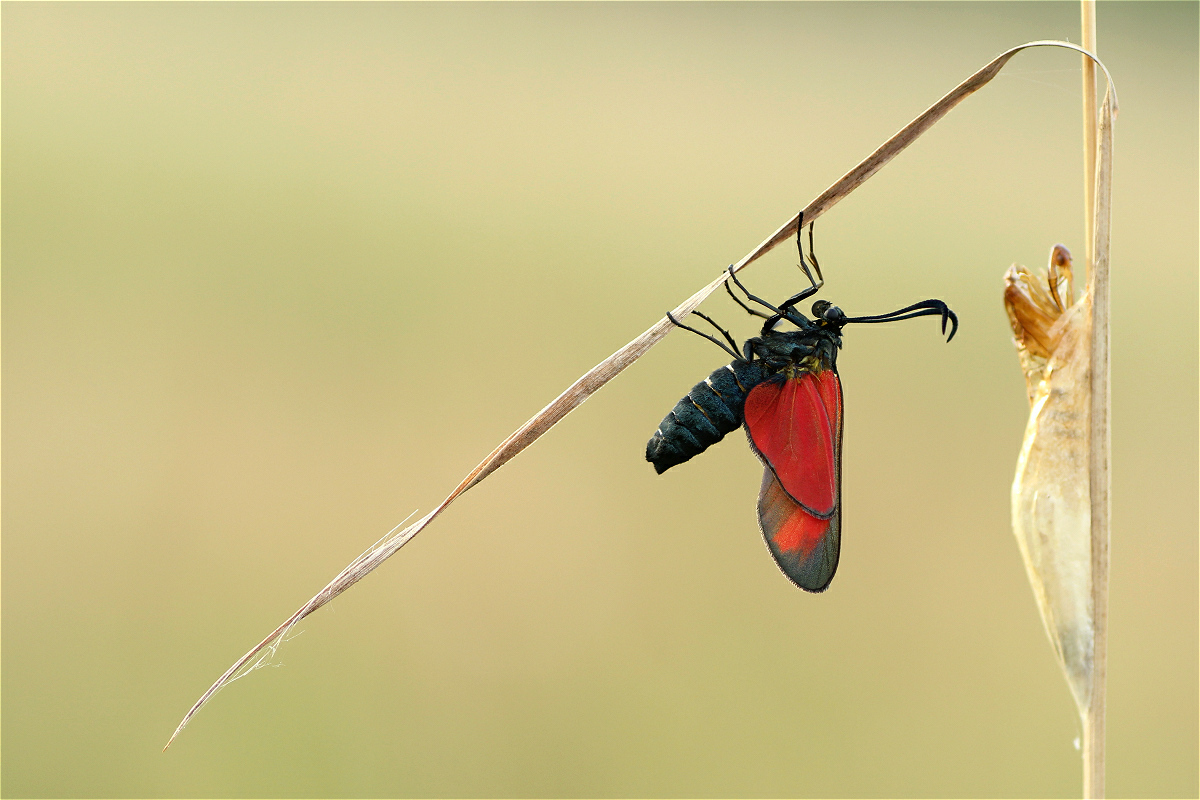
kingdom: Animalia
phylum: Arthropoda
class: Insecta
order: Lepidoptera
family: Zygaenidae
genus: Zygaena
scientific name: Zygaena
